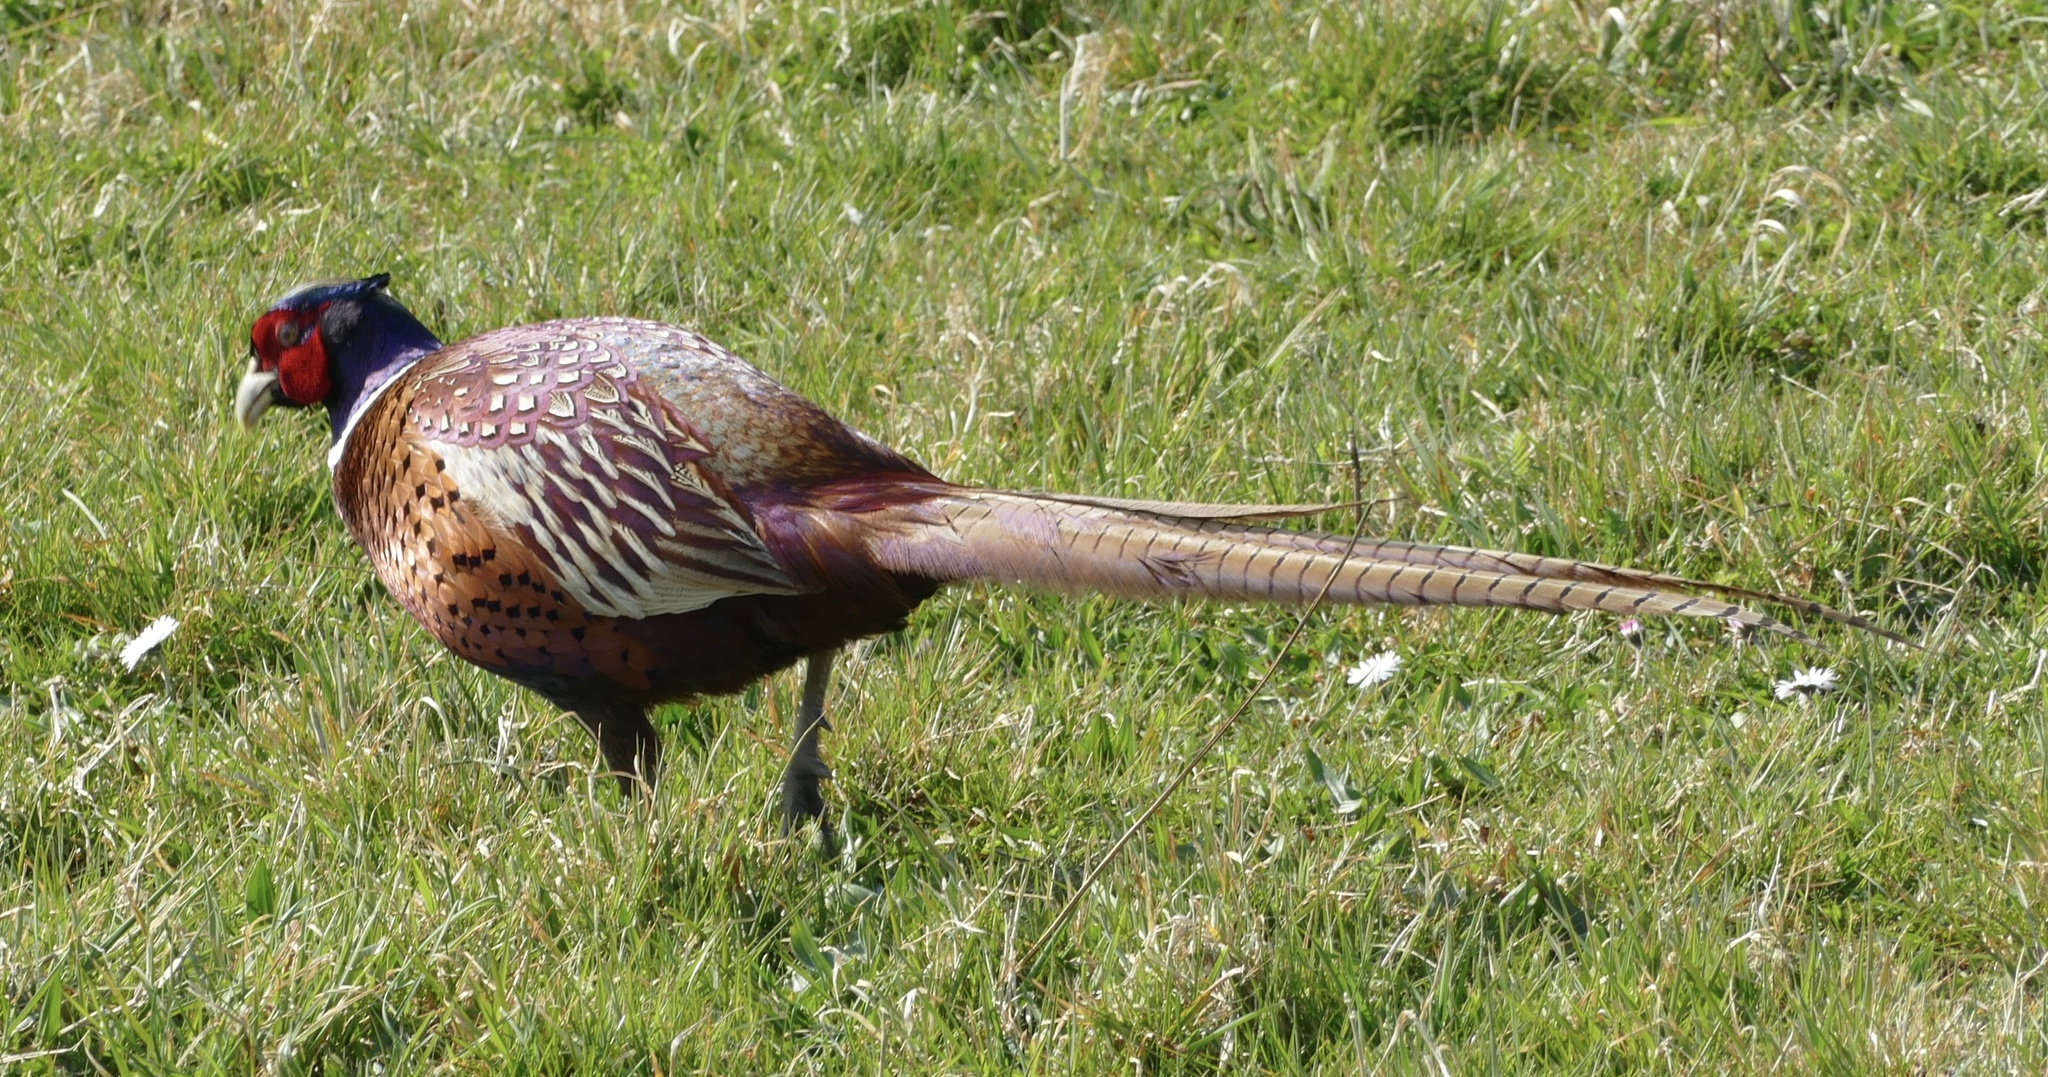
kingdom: Animalia
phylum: Chordata
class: Aves
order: Galliformes
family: Phasianidae
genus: Phasianus
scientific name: Phasianus colchicus
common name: Common pheasant
